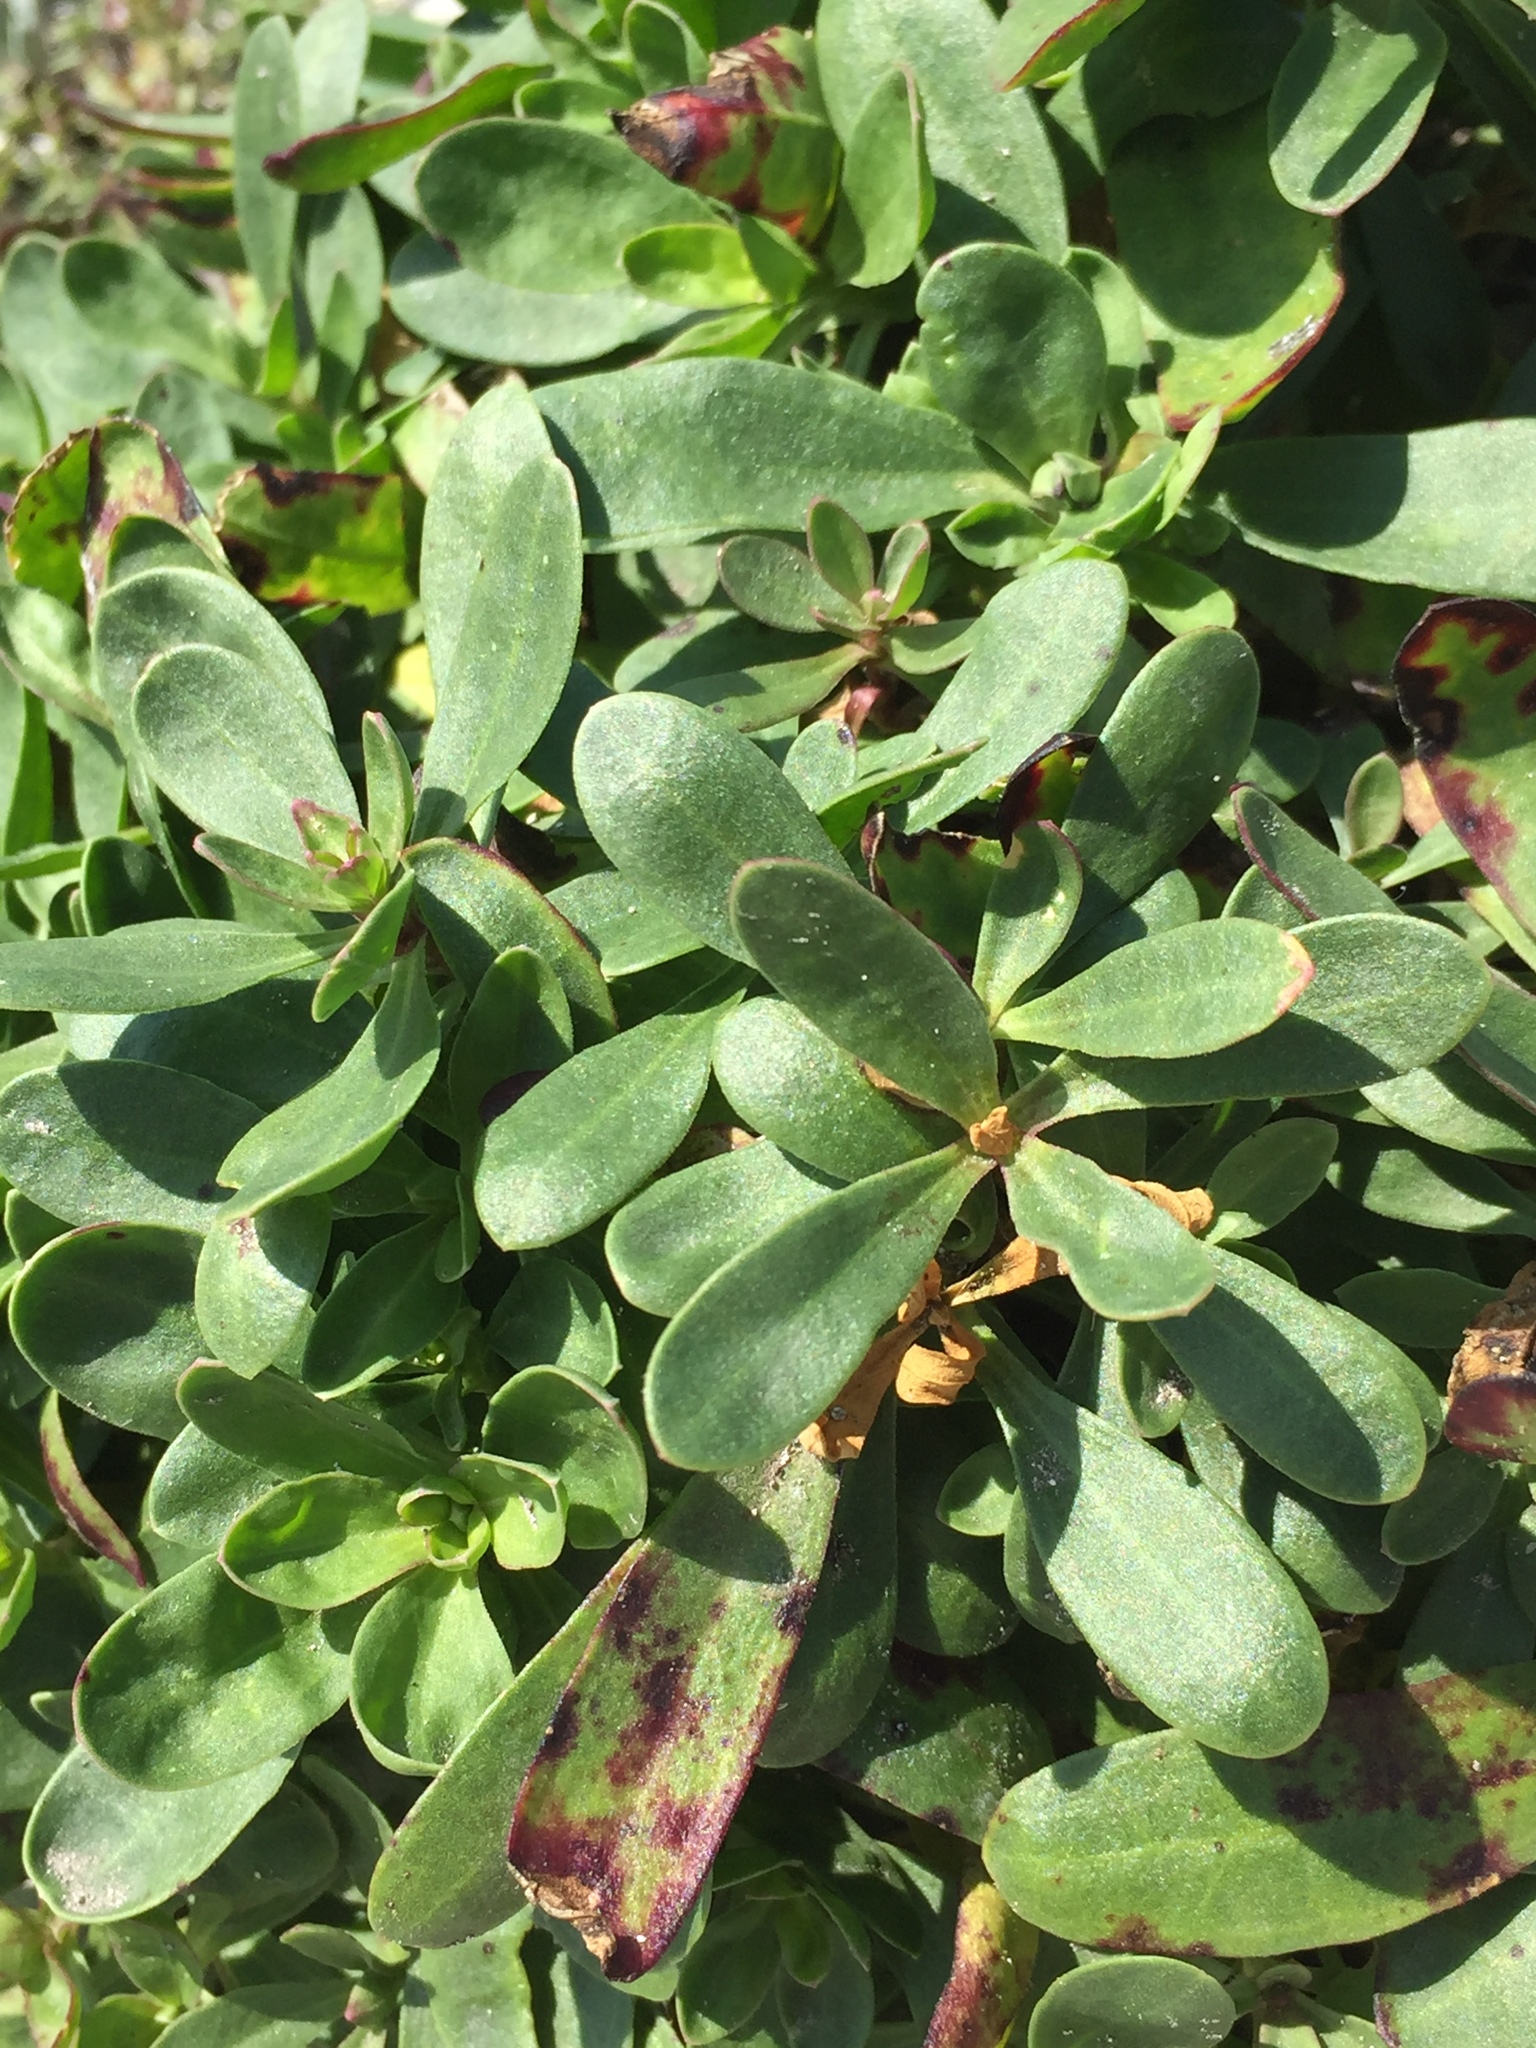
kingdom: Plantae
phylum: Tracheophyta
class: Magnoliopsida
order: Caryophyllales
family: Portulacaceae
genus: Portulaca
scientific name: Portulaca oleracea
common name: Common purslane
